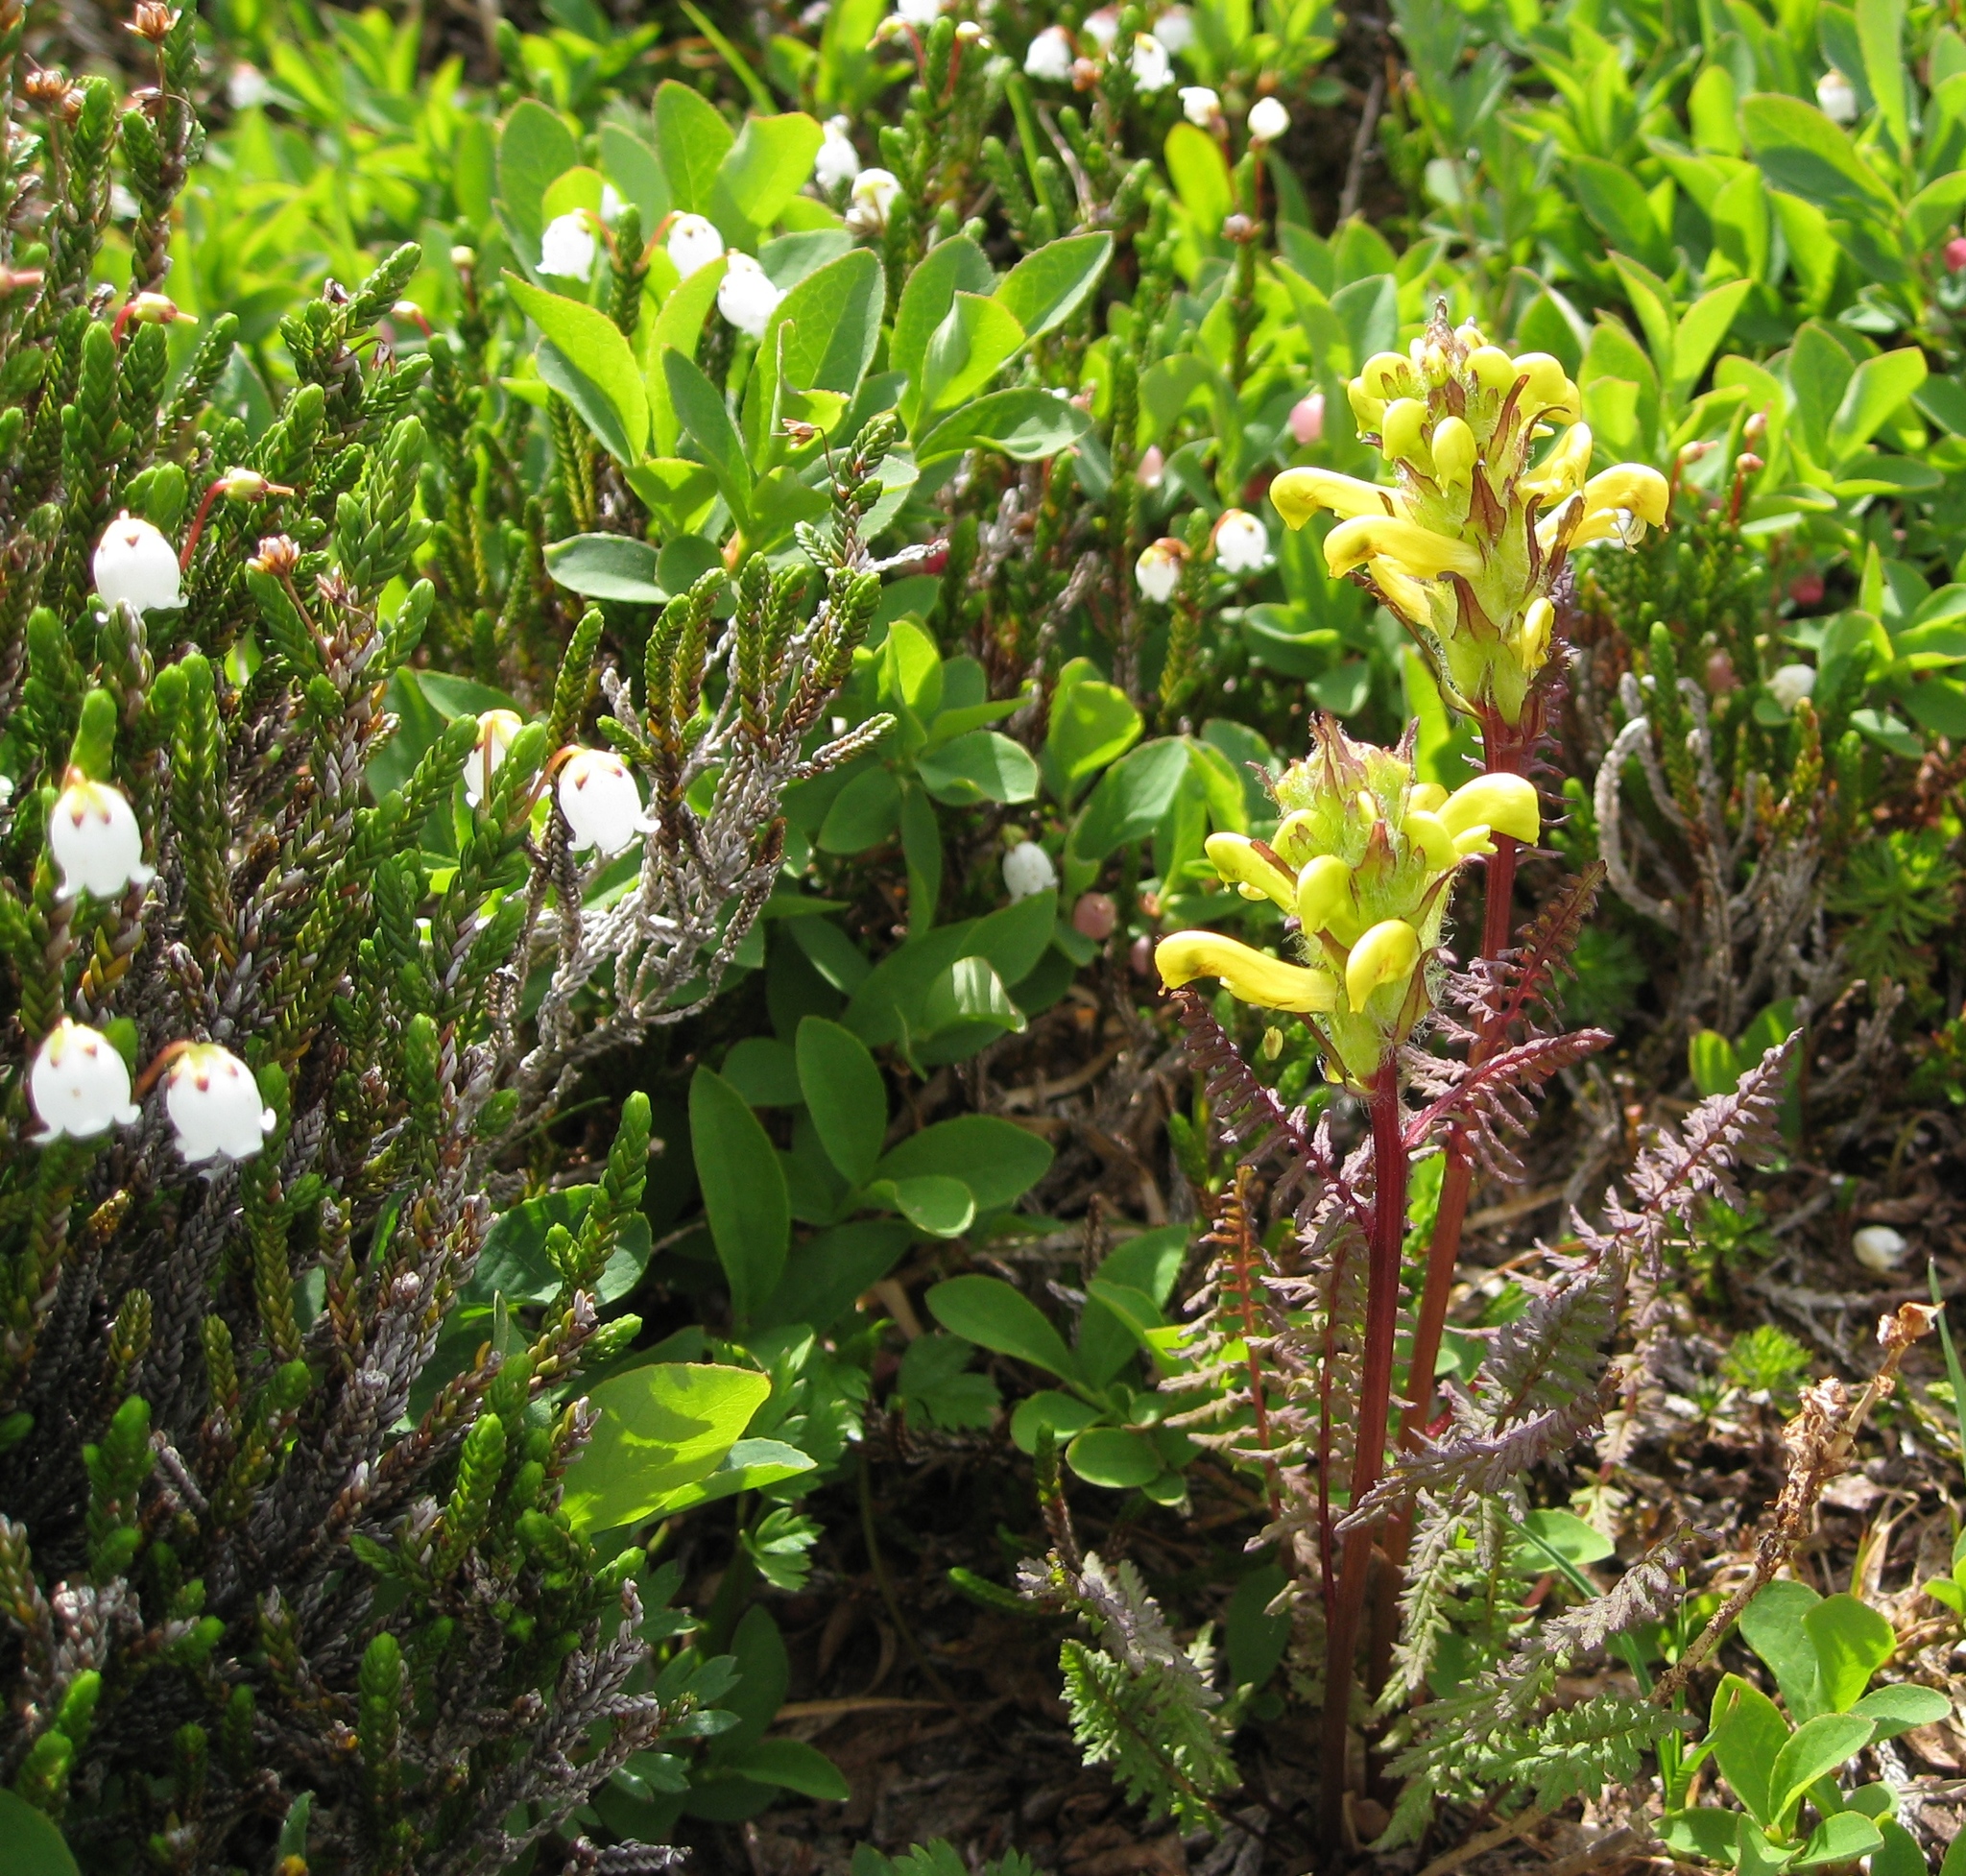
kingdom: Plantae
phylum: Tracheophyta
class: Magnoliopsida
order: Ericales
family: Ericaceae
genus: Cassiope
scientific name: Cassiope mertensiana
